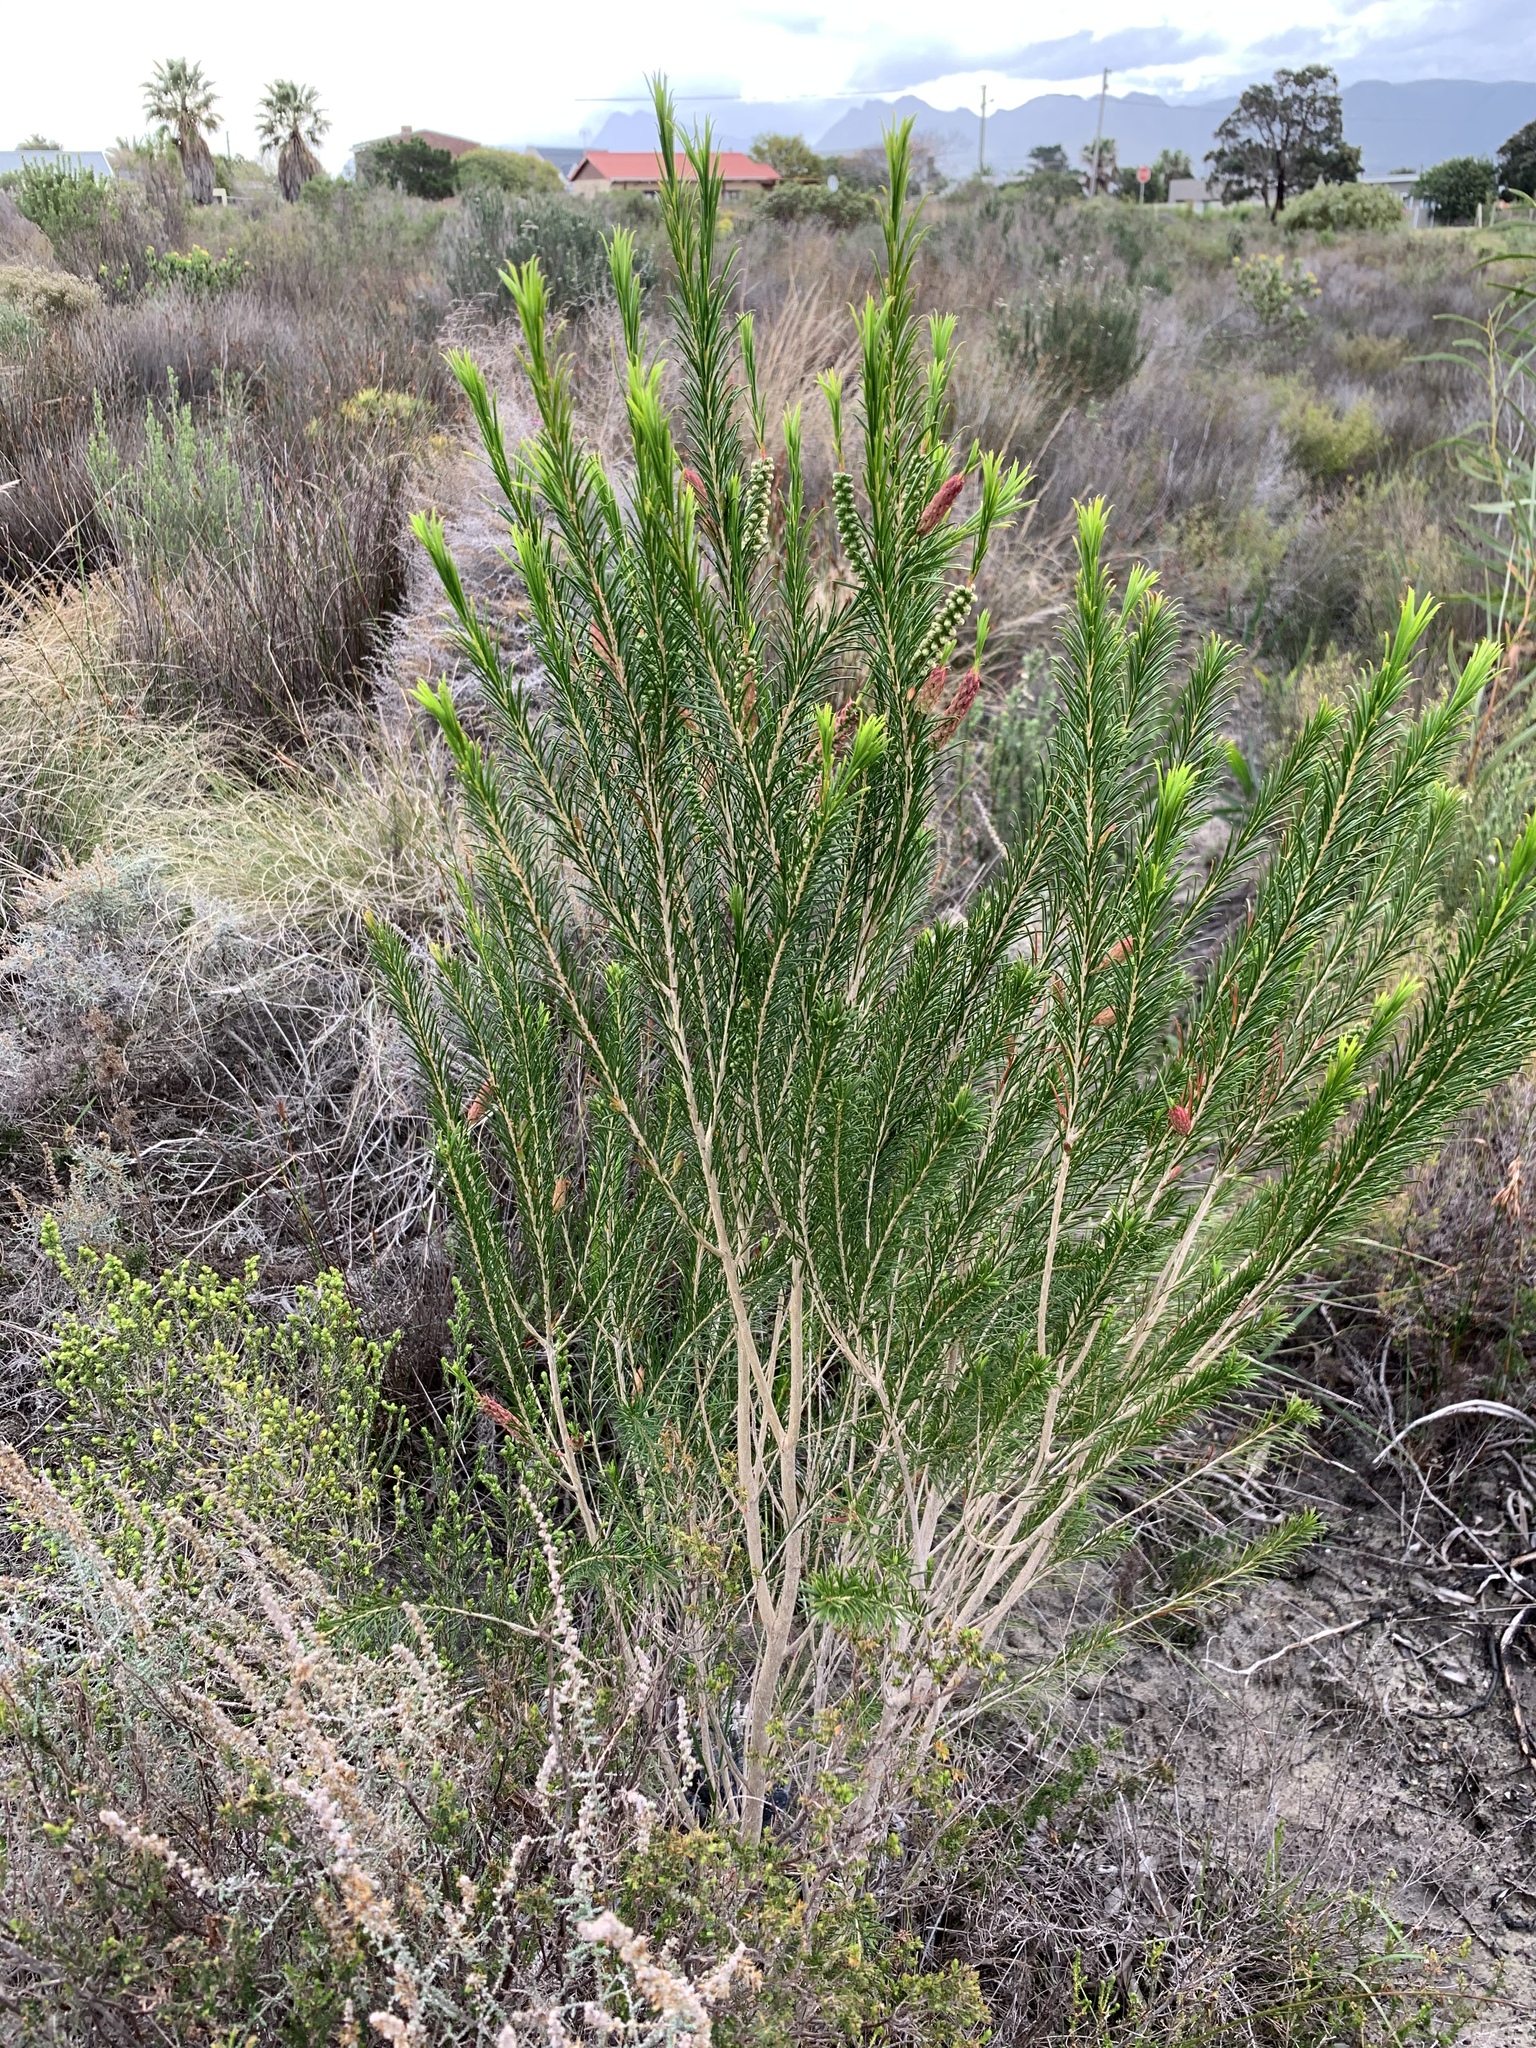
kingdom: Plantae
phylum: Tracheophyta
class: Magnoliopsida
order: Myrtales
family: Myrtaceae
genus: Melaleuca
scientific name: Melaleuca armillaris
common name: Bracelet honey myrtle
